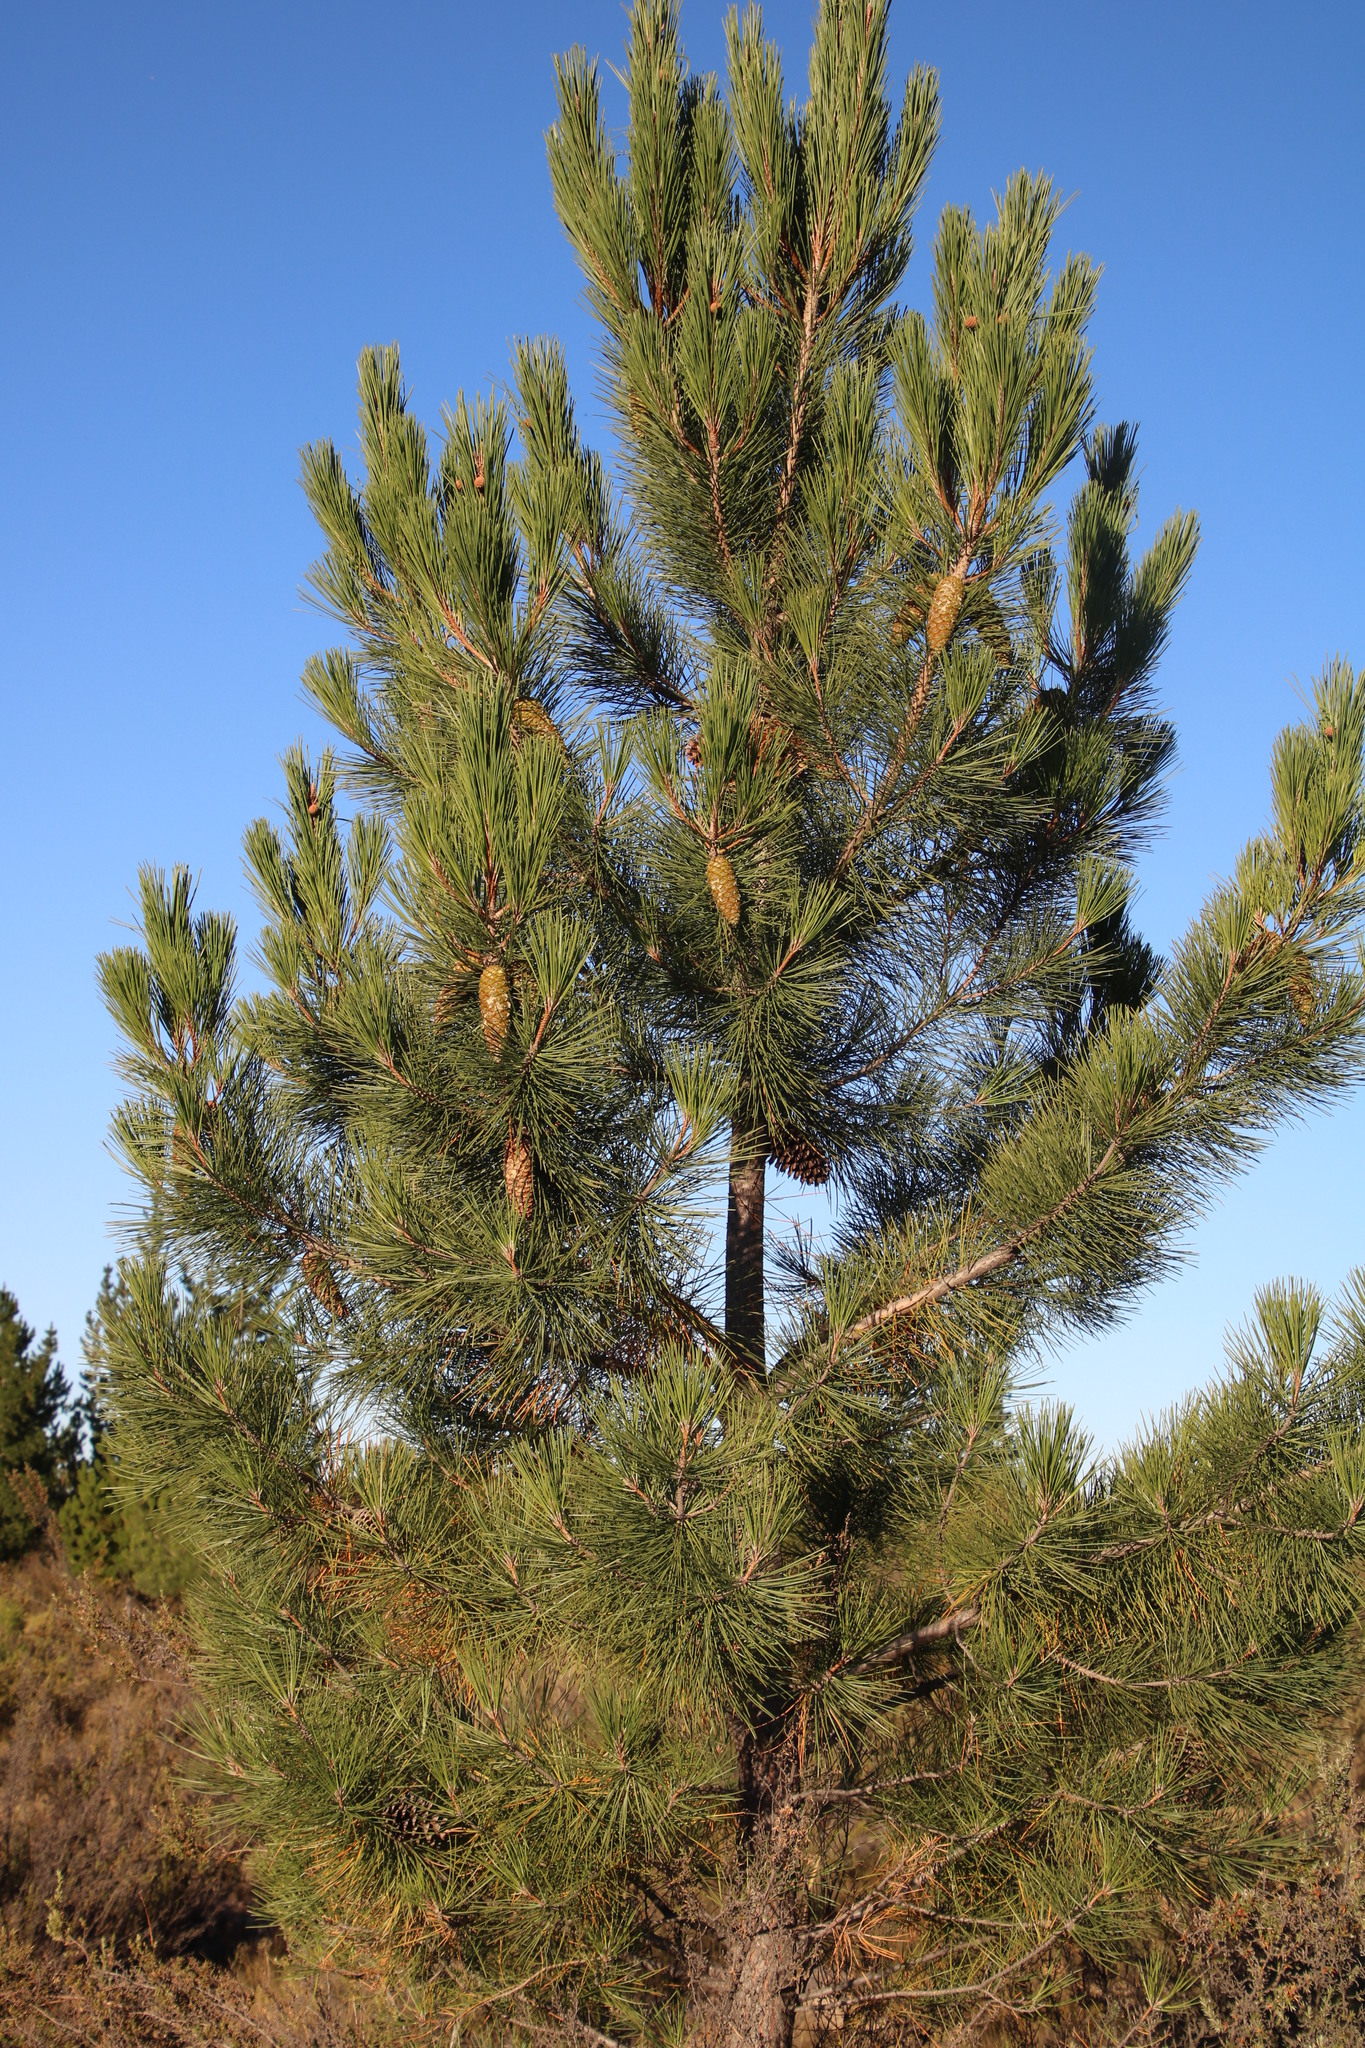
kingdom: Plantae
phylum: Tracheophyta
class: Pinopsida
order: Pinales
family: Pinaceae
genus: Pinus
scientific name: Pinus pinaster
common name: Maritime pine
